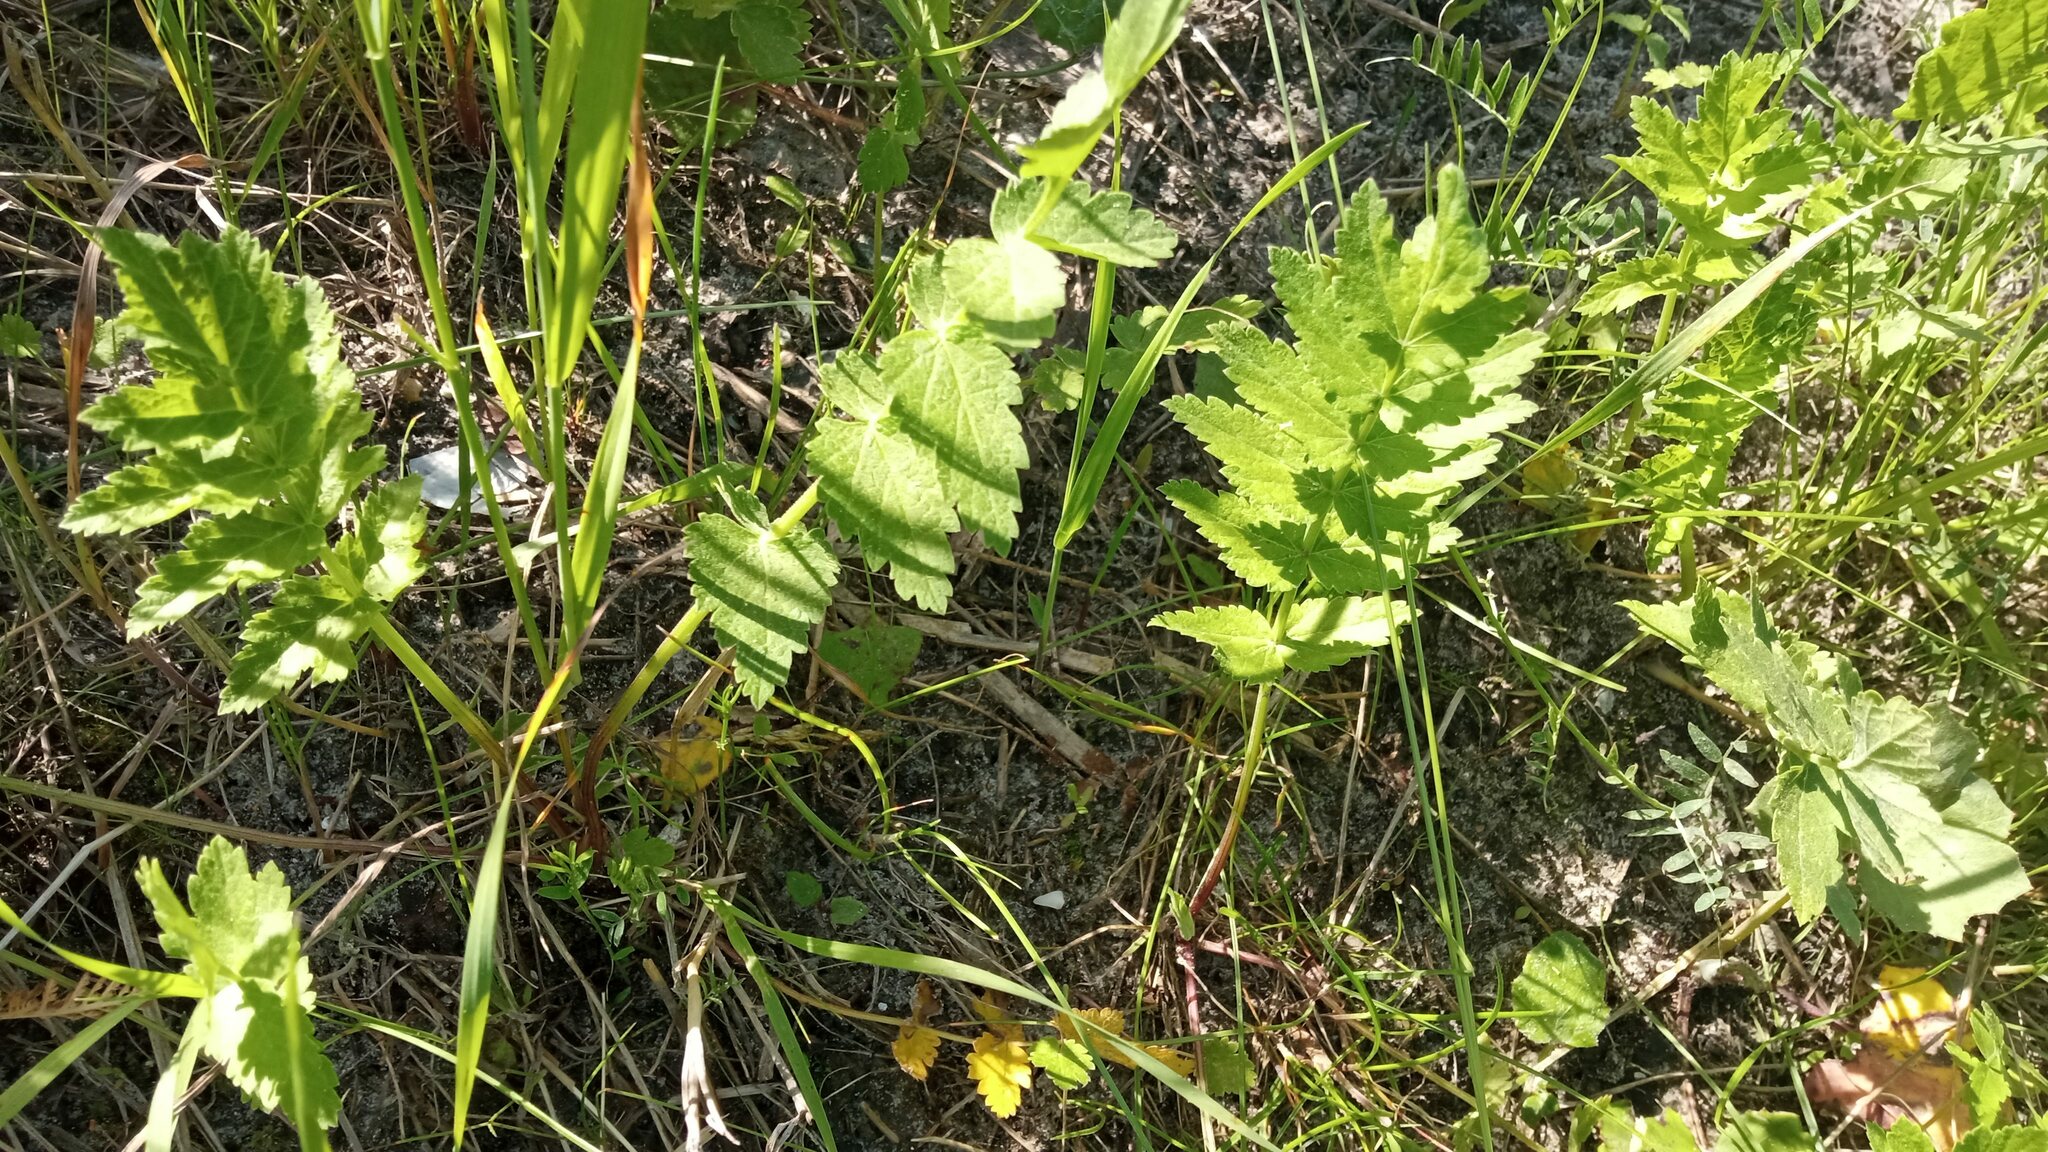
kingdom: Plantae
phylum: Tracheophyta
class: Magnoliopsida
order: Apiales
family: Apiaceae
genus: Pastinaca
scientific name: Pastinaca sativa
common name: Wild parsnip
